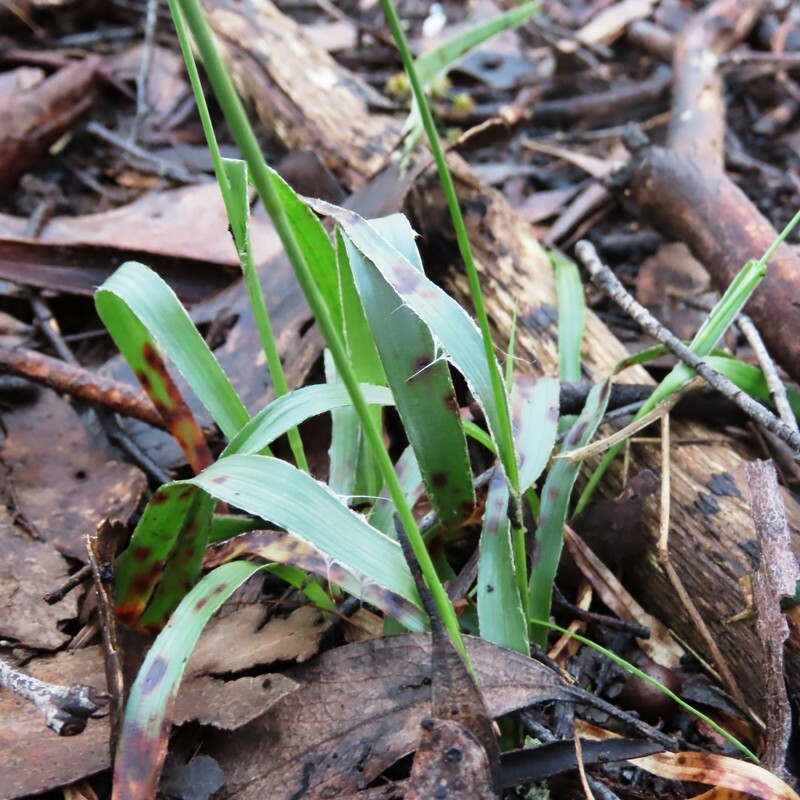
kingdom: Plantae
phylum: Tracheophyta
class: Liliopsida
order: Poales
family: Juncaceae
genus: Luzula
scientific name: Luzula meridionalis
